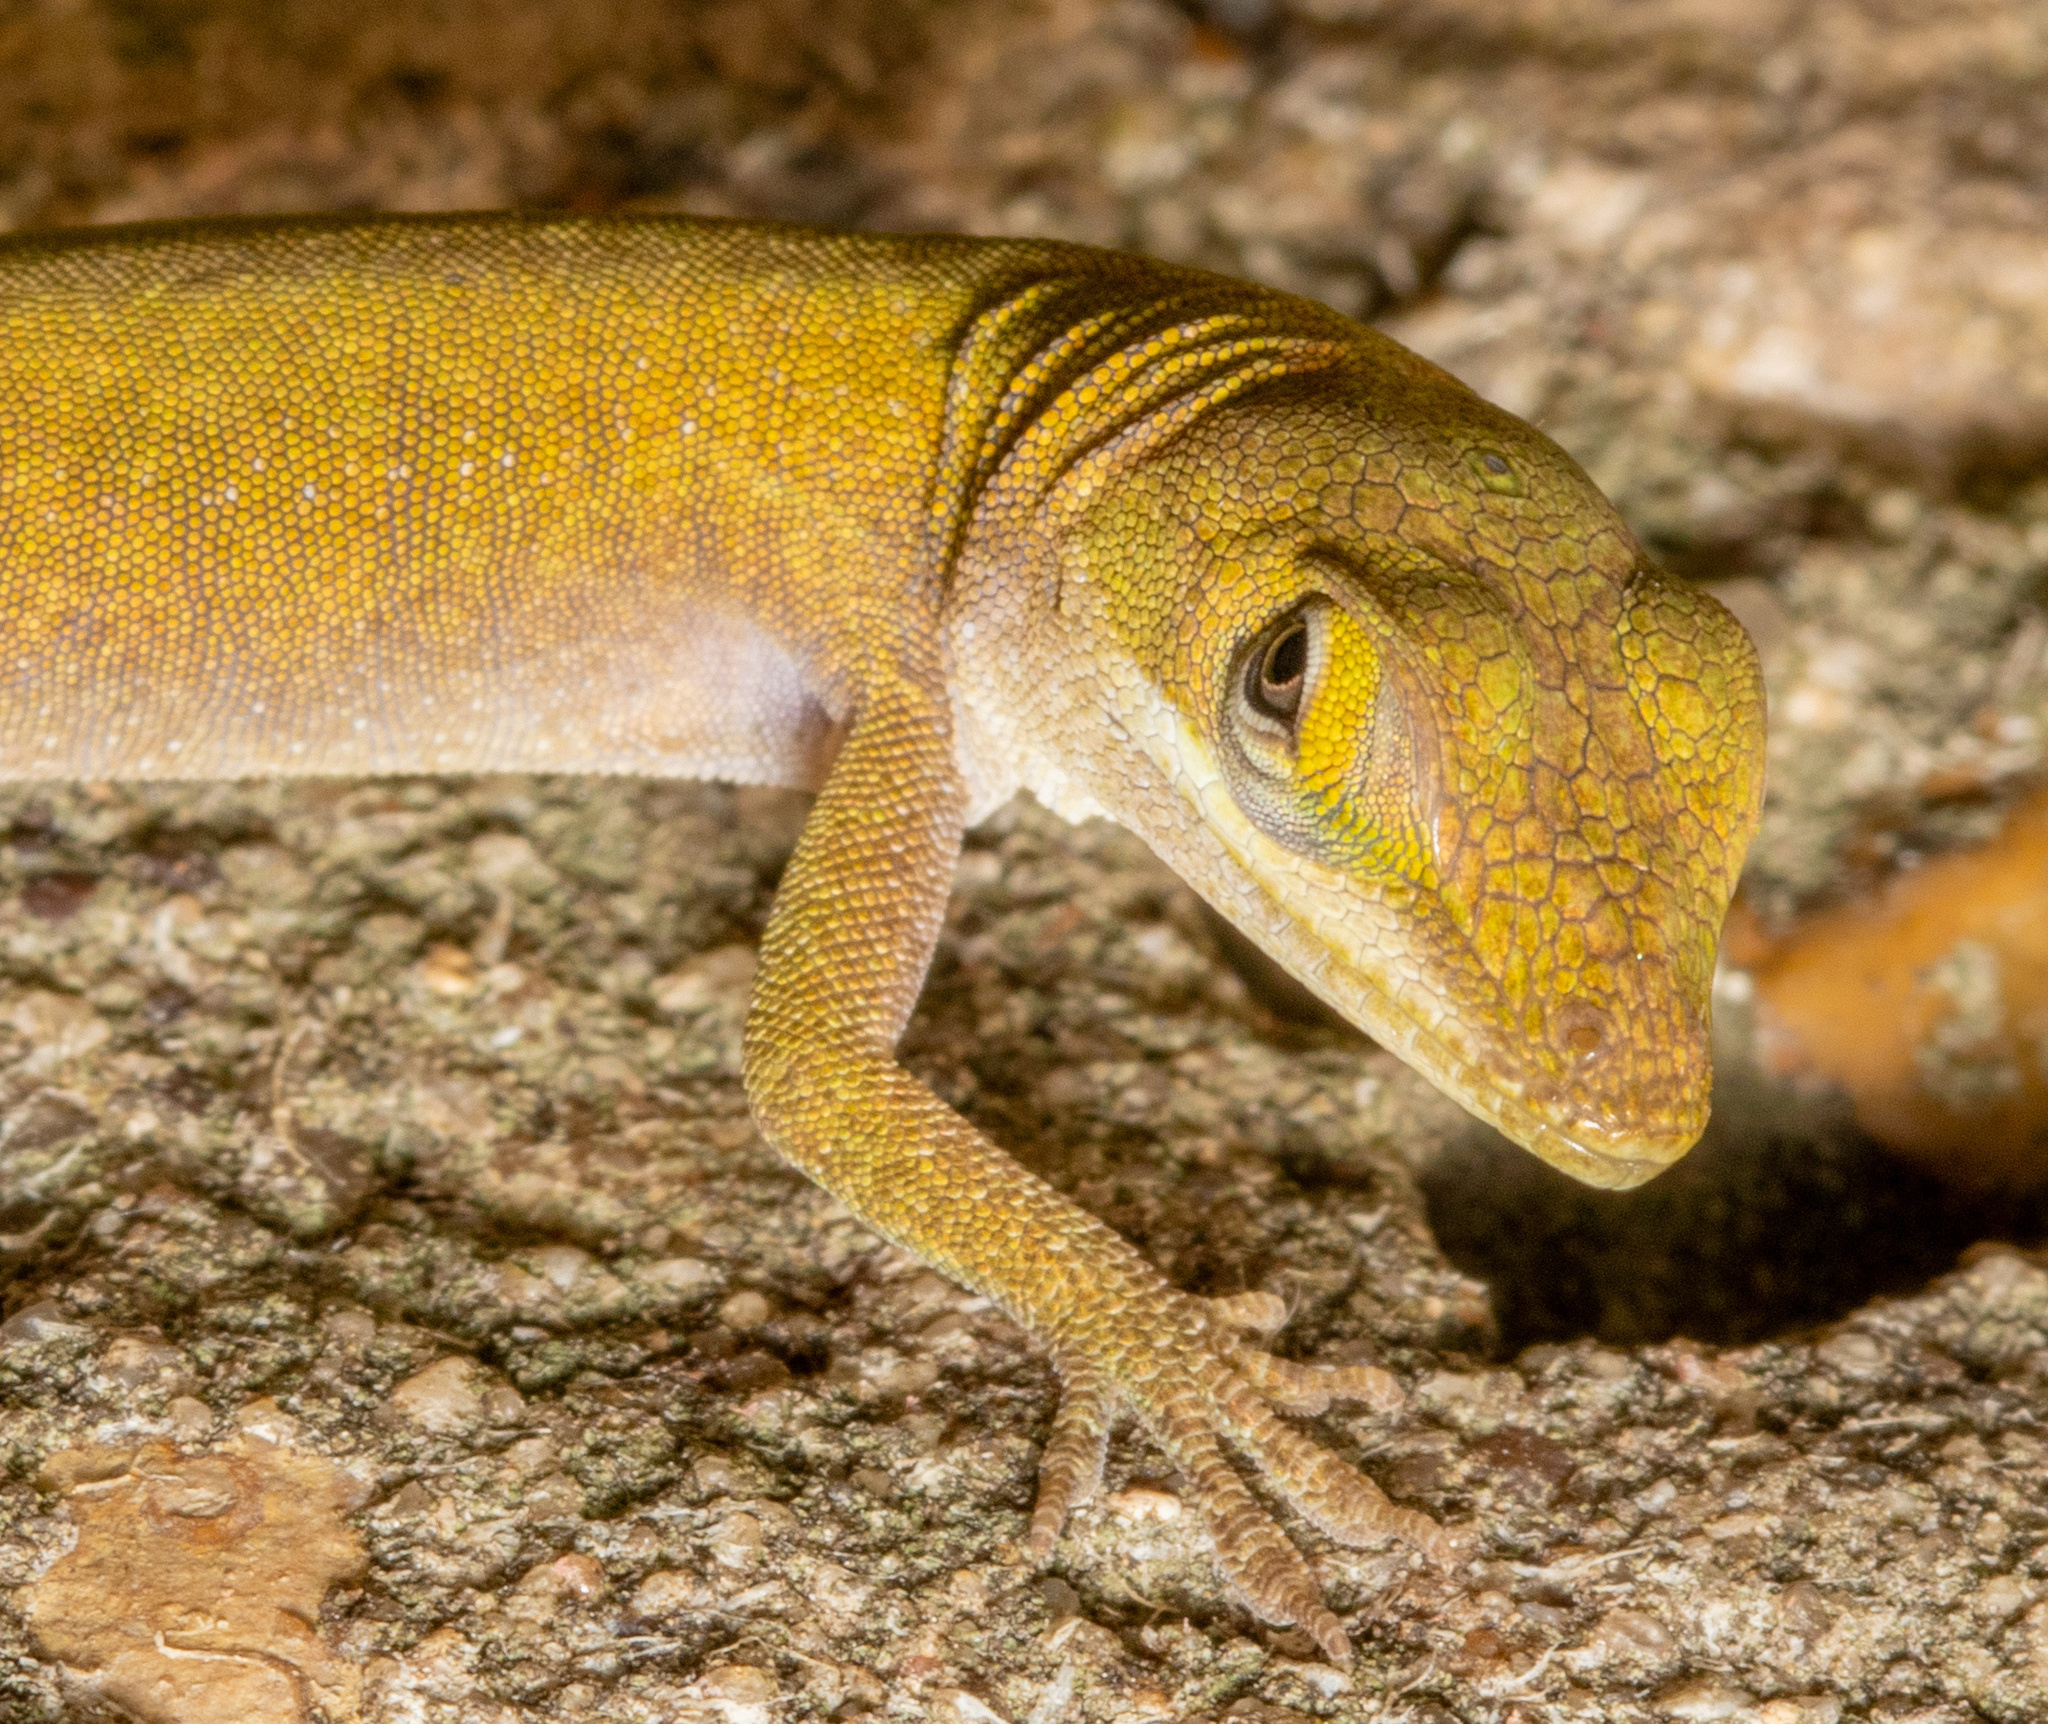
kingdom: Animalia
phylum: Chordata
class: Squamata
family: Dactyloidae
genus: Anolis
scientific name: Anolis carolinensis
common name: Green anole
